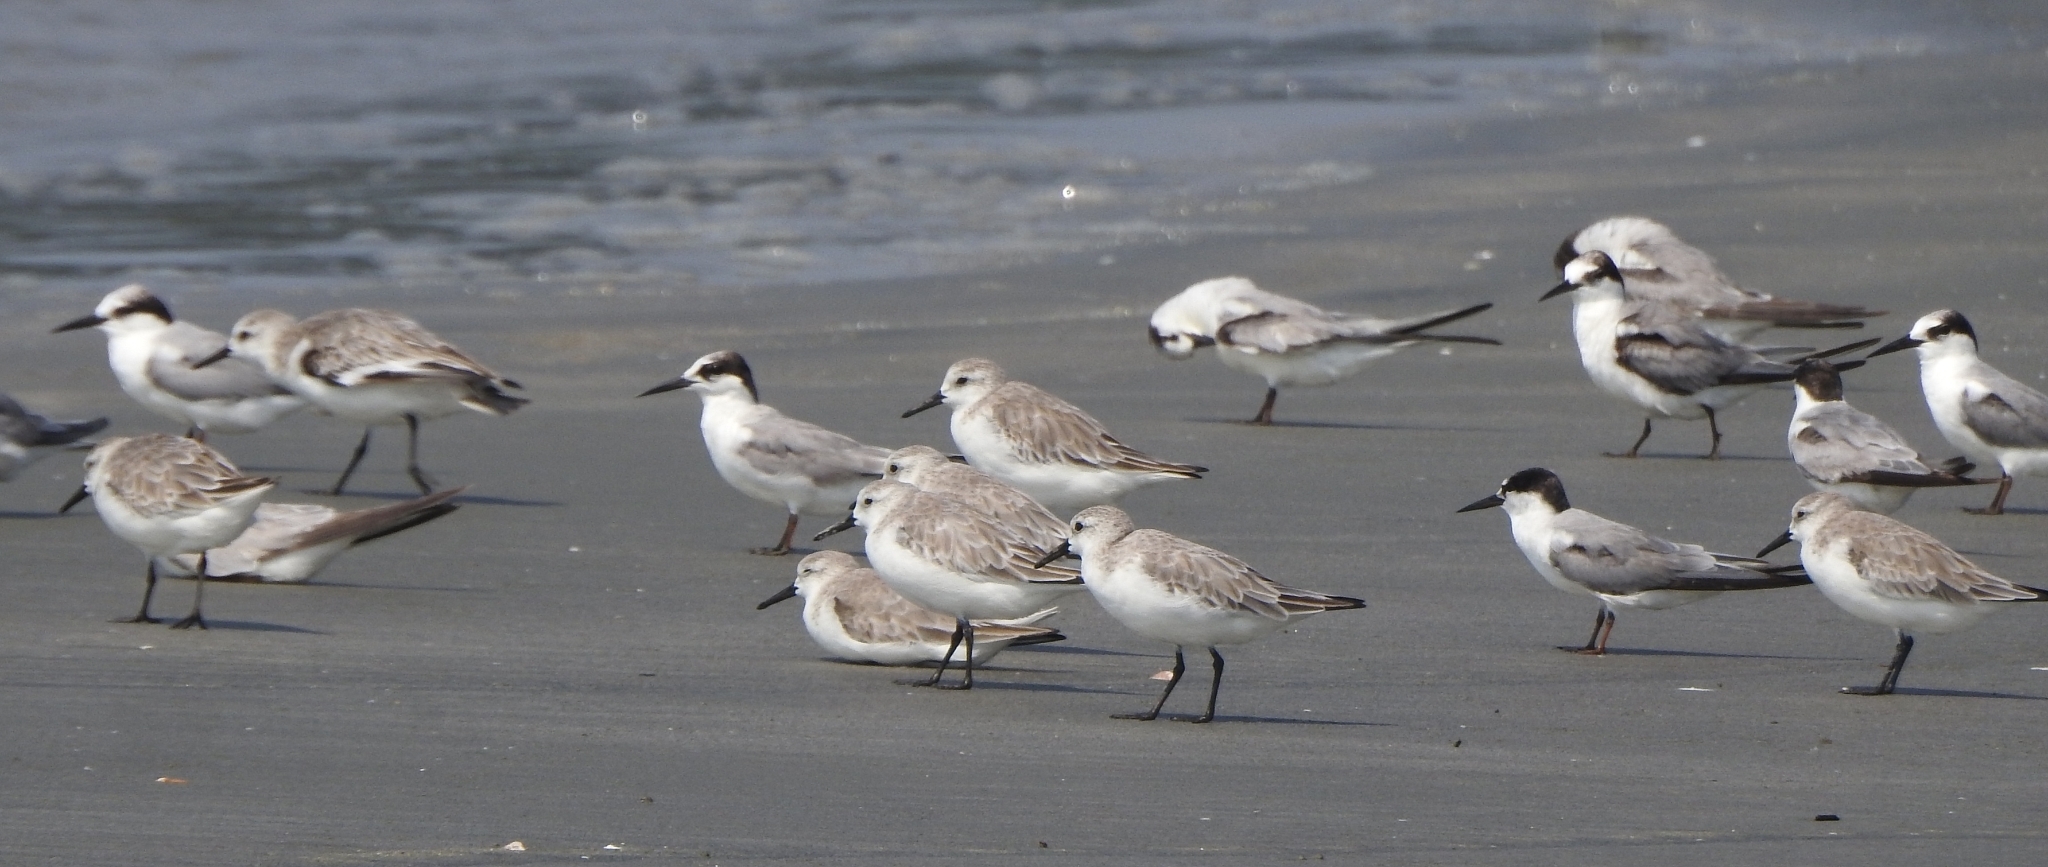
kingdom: Animalia
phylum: Chordata
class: Aves
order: Charadriiformes
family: Scolopacidae
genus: Calidris
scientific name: Calidris alba
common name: Sanderling
